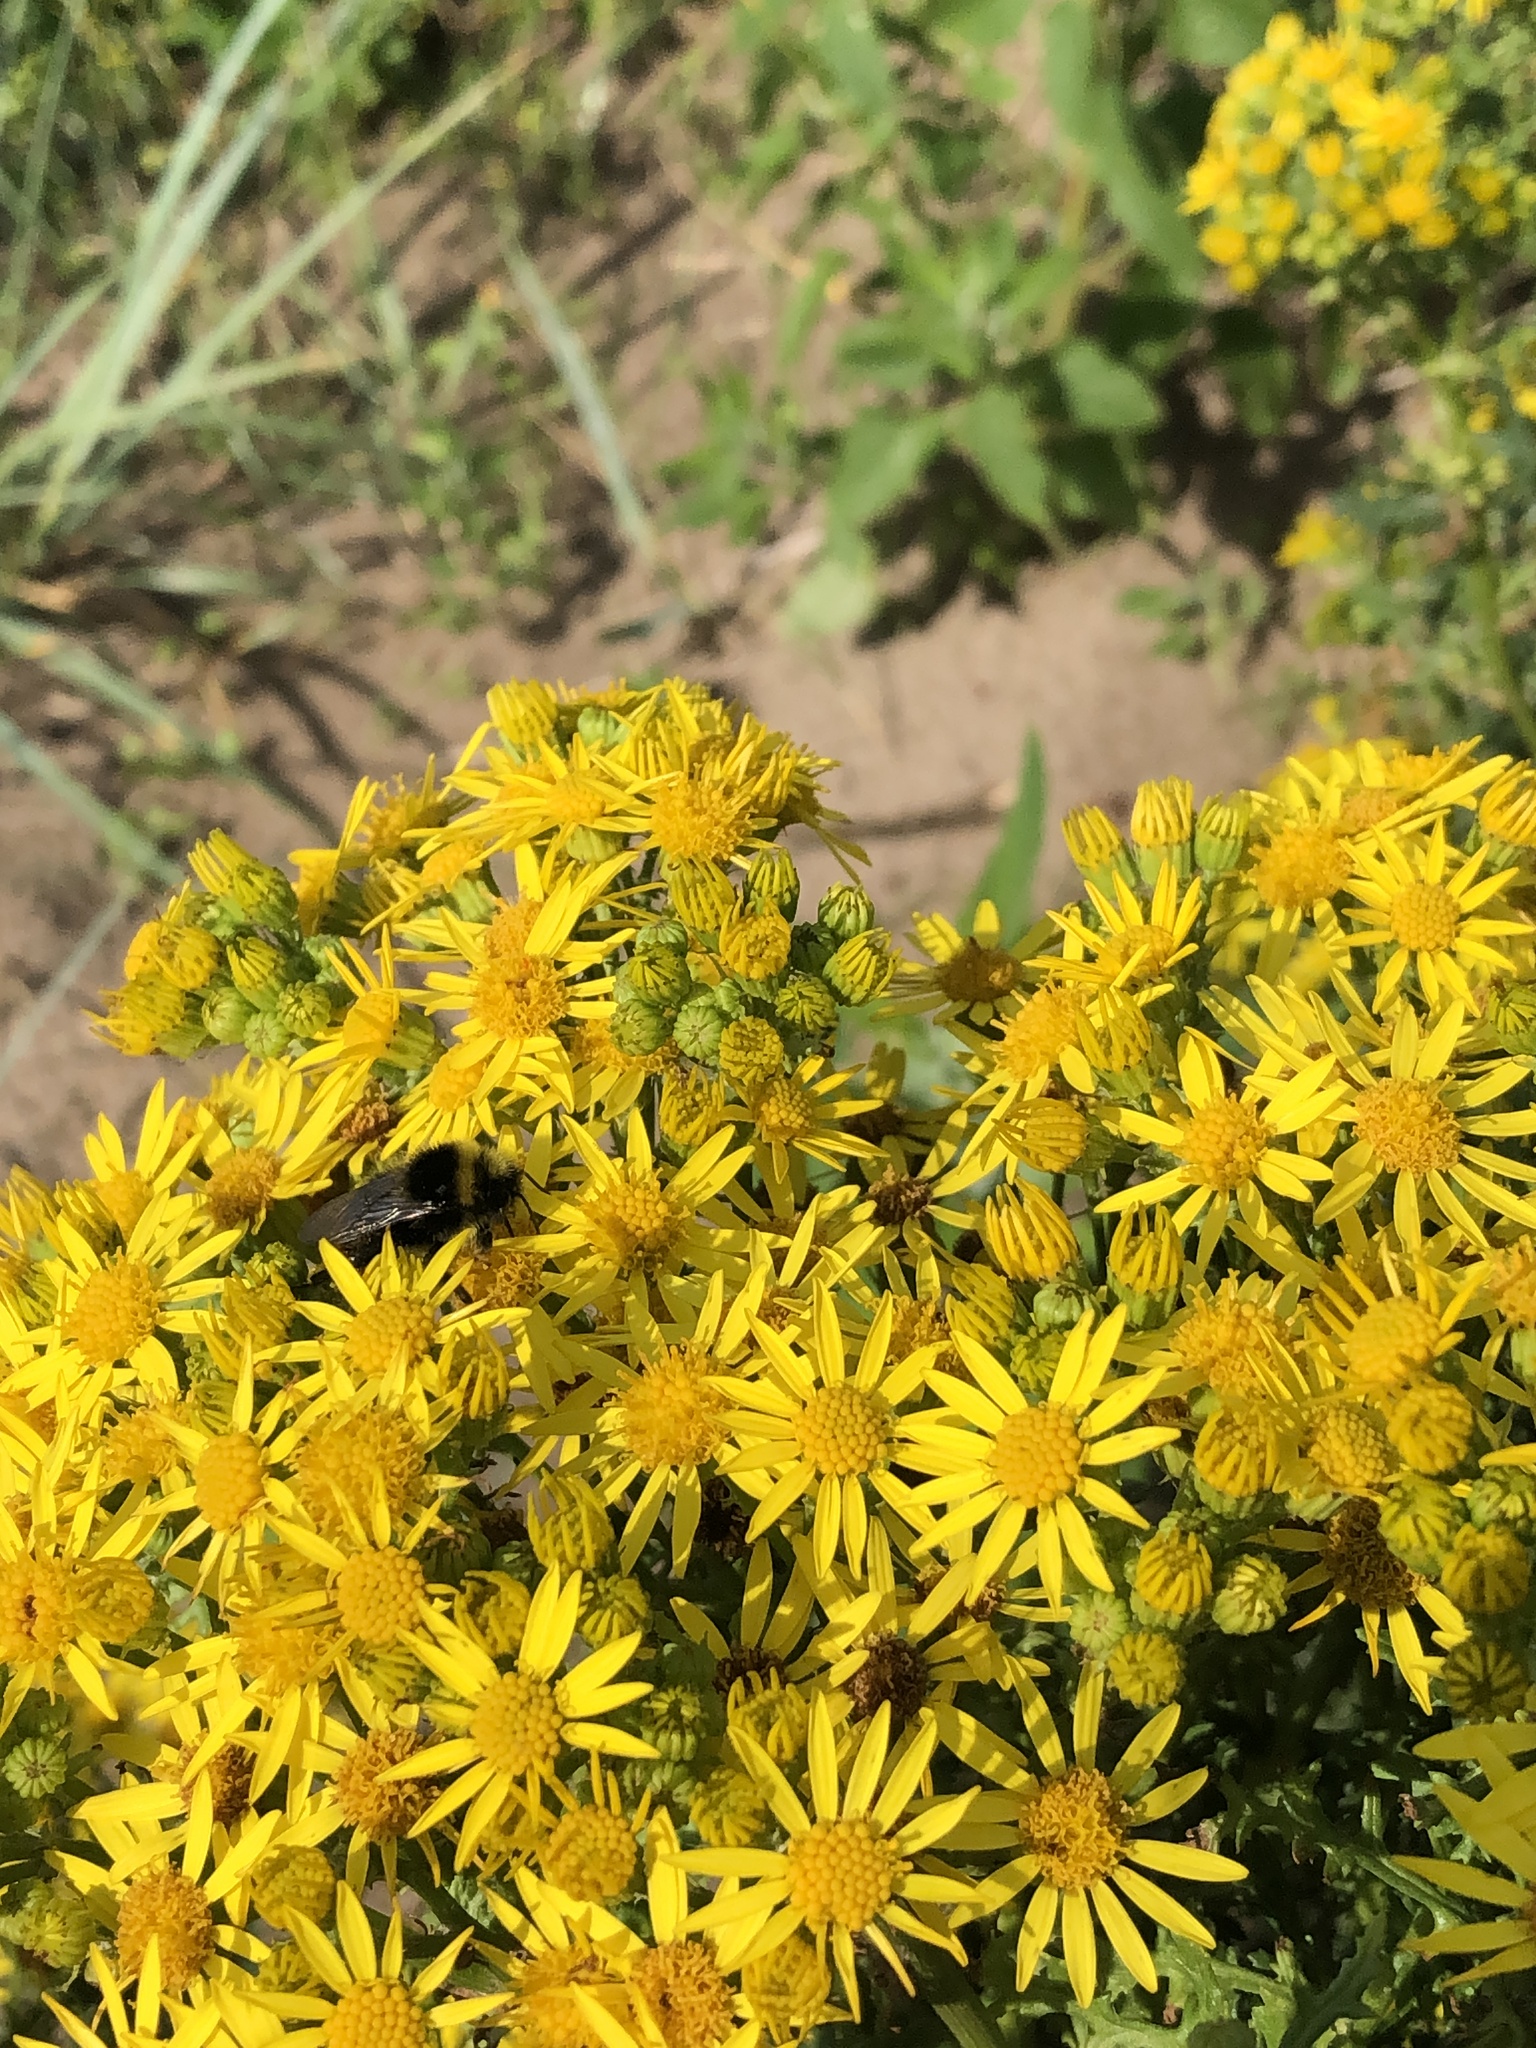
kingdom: Animalia
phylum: Arthropoda
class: Insecta
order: Hymenoptera
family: Apidae
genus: Bombus
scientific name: Bombus lapidarius
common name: Large red-tailed humble-bee
